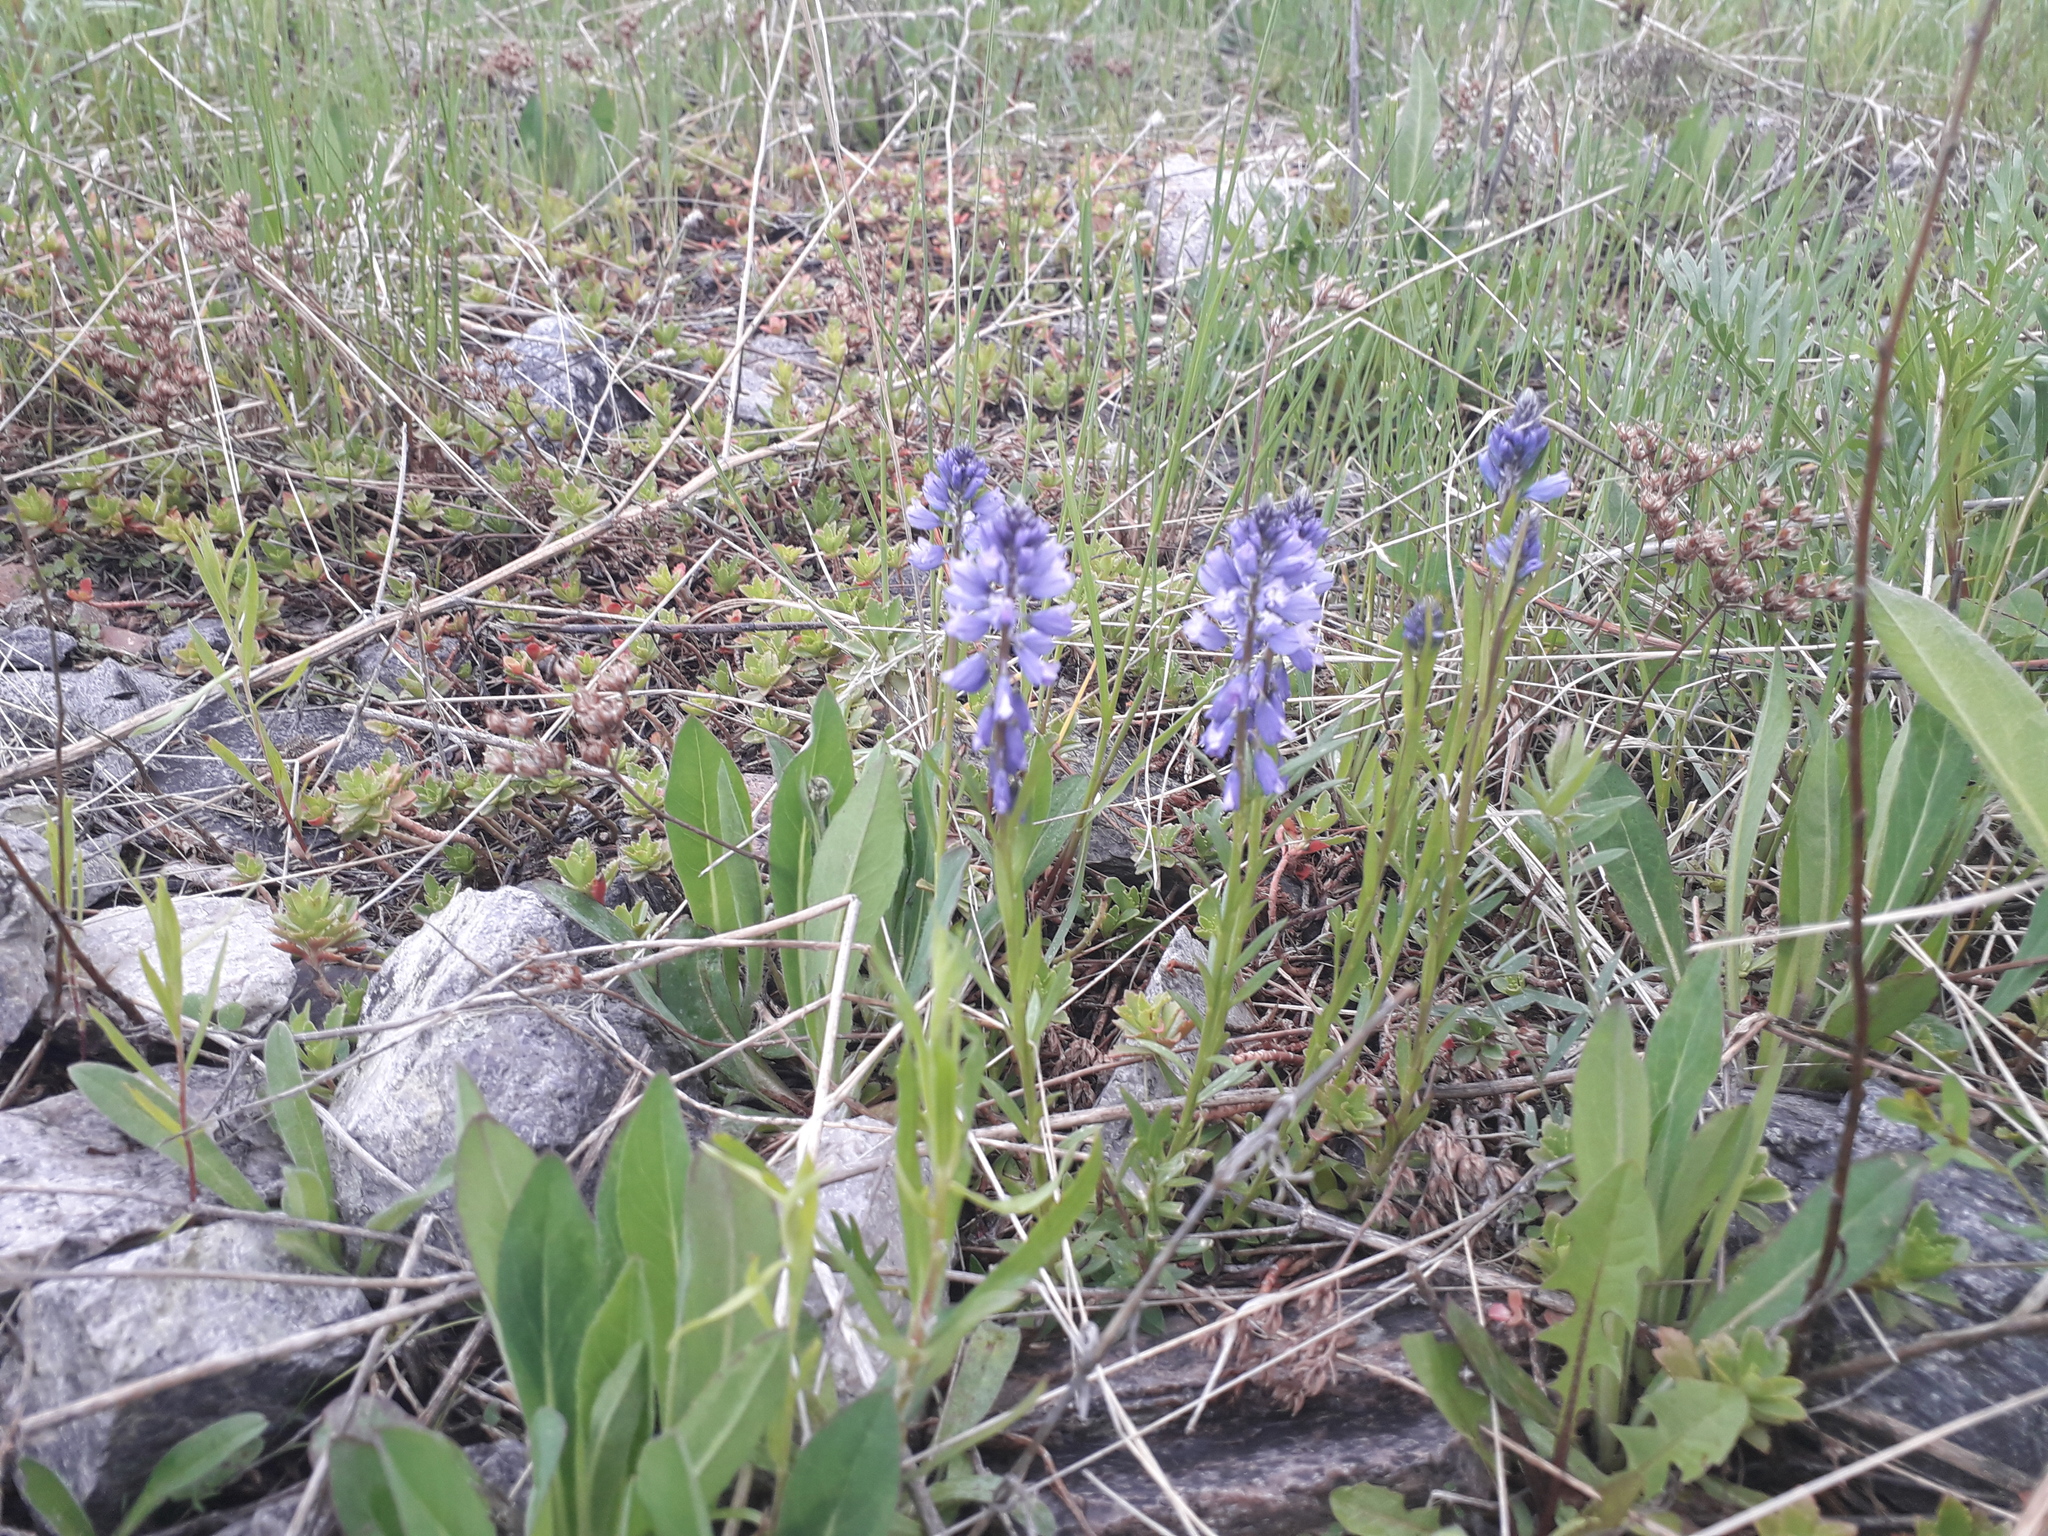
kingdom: Plantae
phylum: Tracheophyta
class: Magnoliopsida
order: Fabales
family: Polygalaceae
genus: Polygala
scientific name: Polygala comosa
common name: Tufted milkwort
